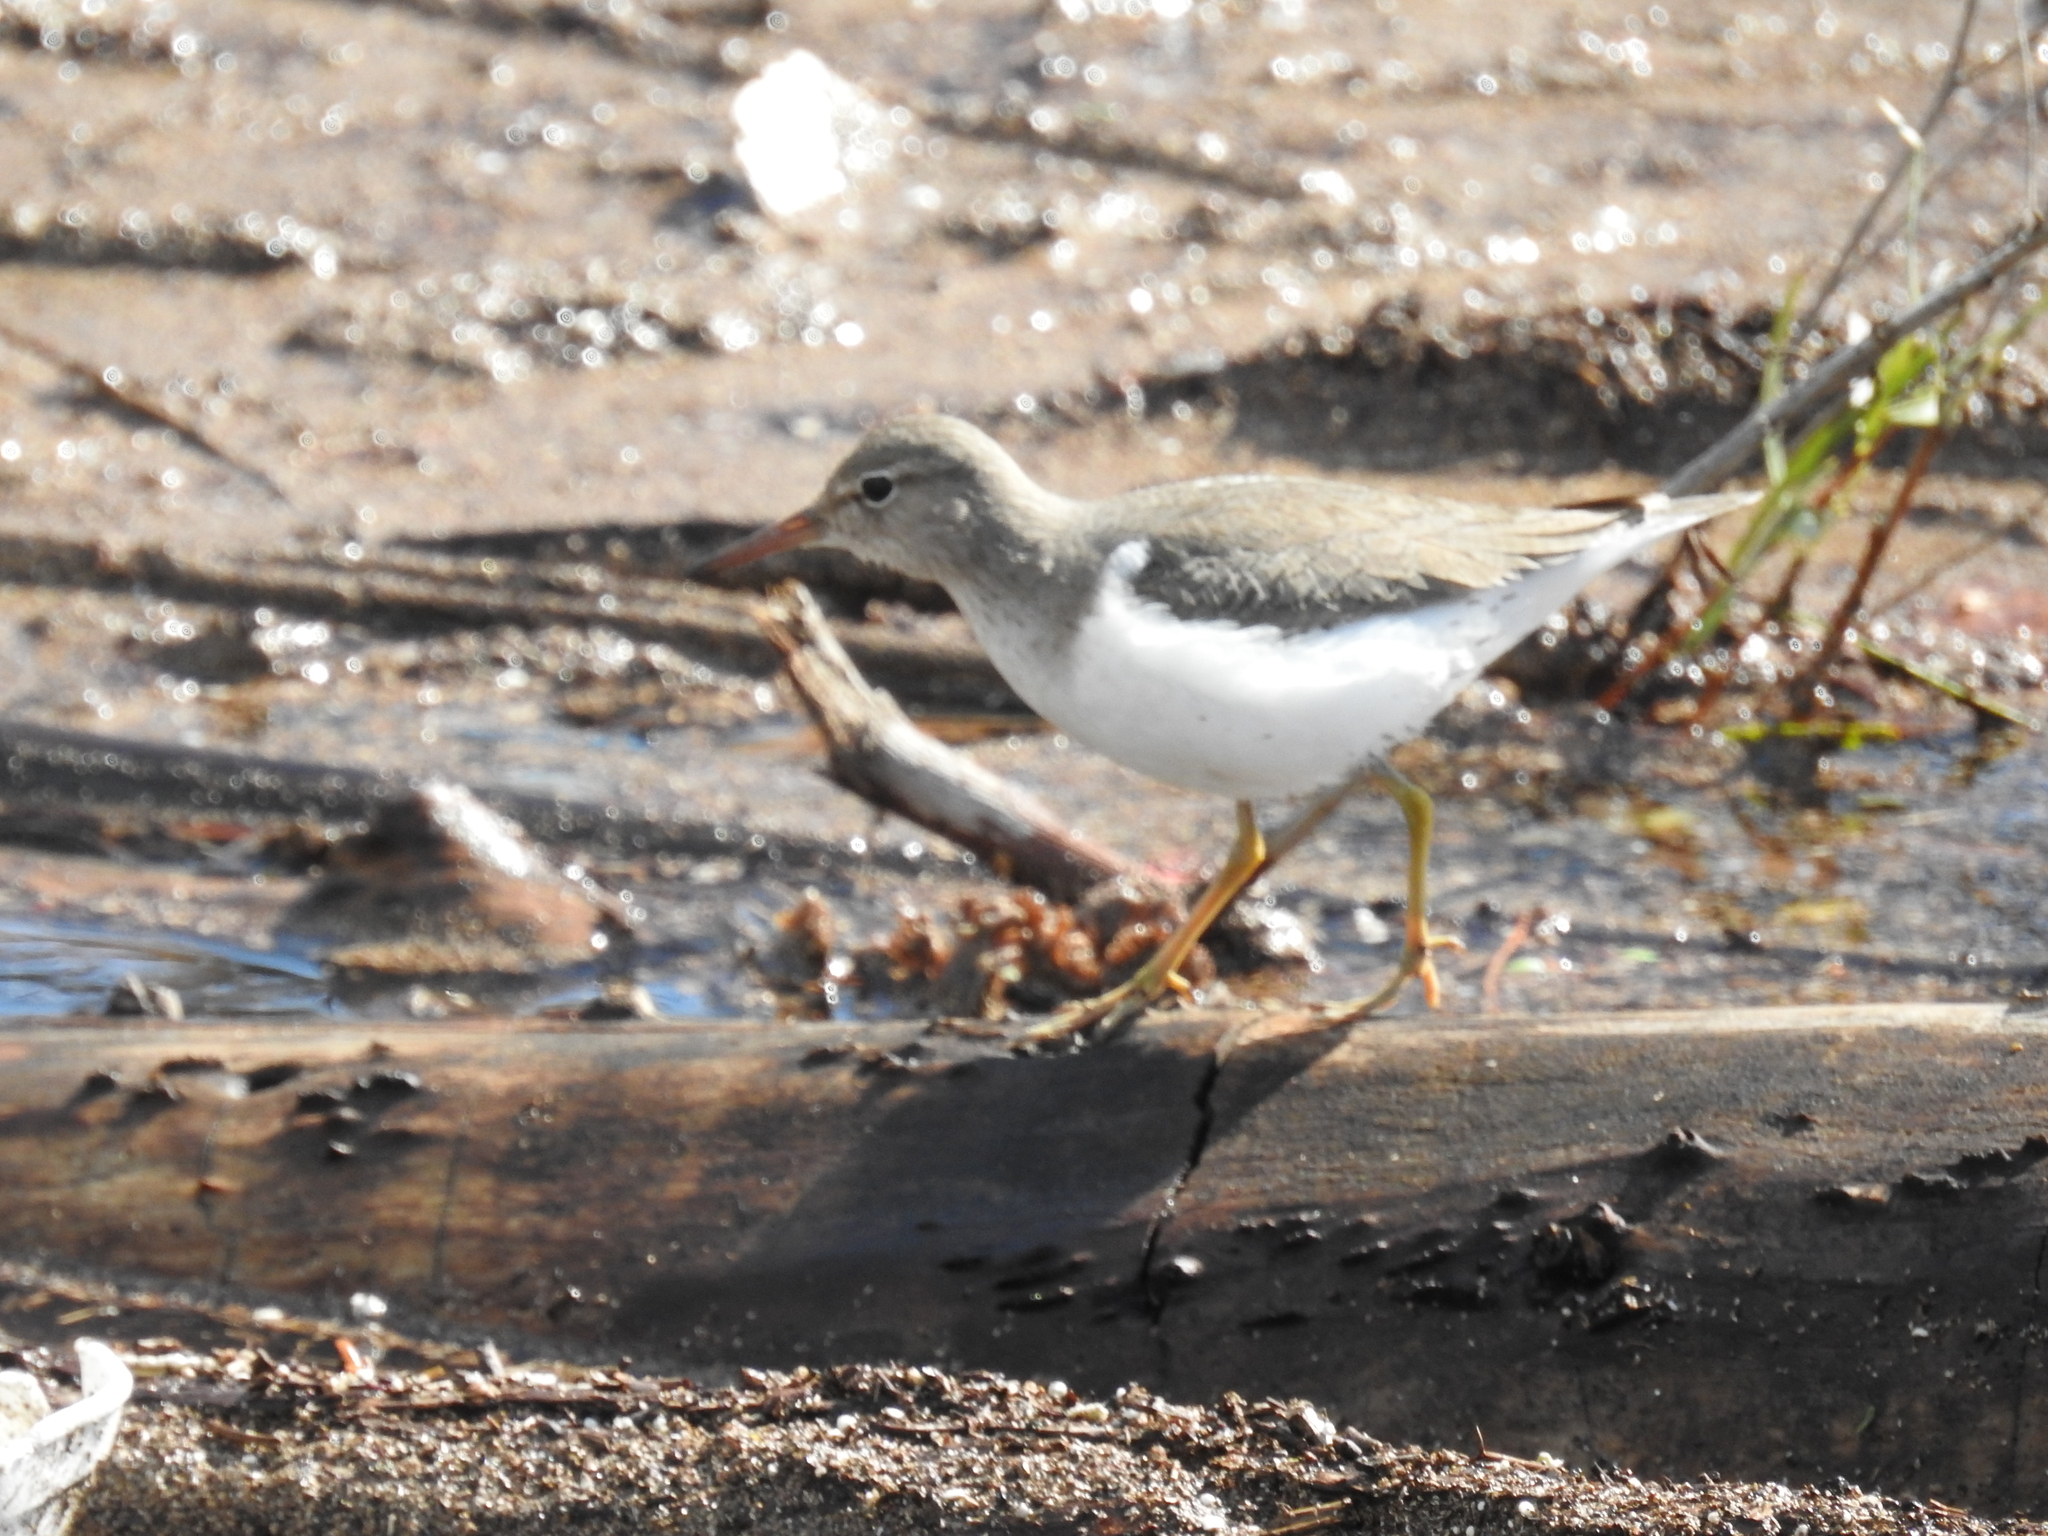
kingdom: Animalia
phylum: Chordata
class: Aves
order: Charadriiformes
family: Scolopacidae
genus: Actitis
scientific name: Actitis macularius
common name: Spotted sandpiper
